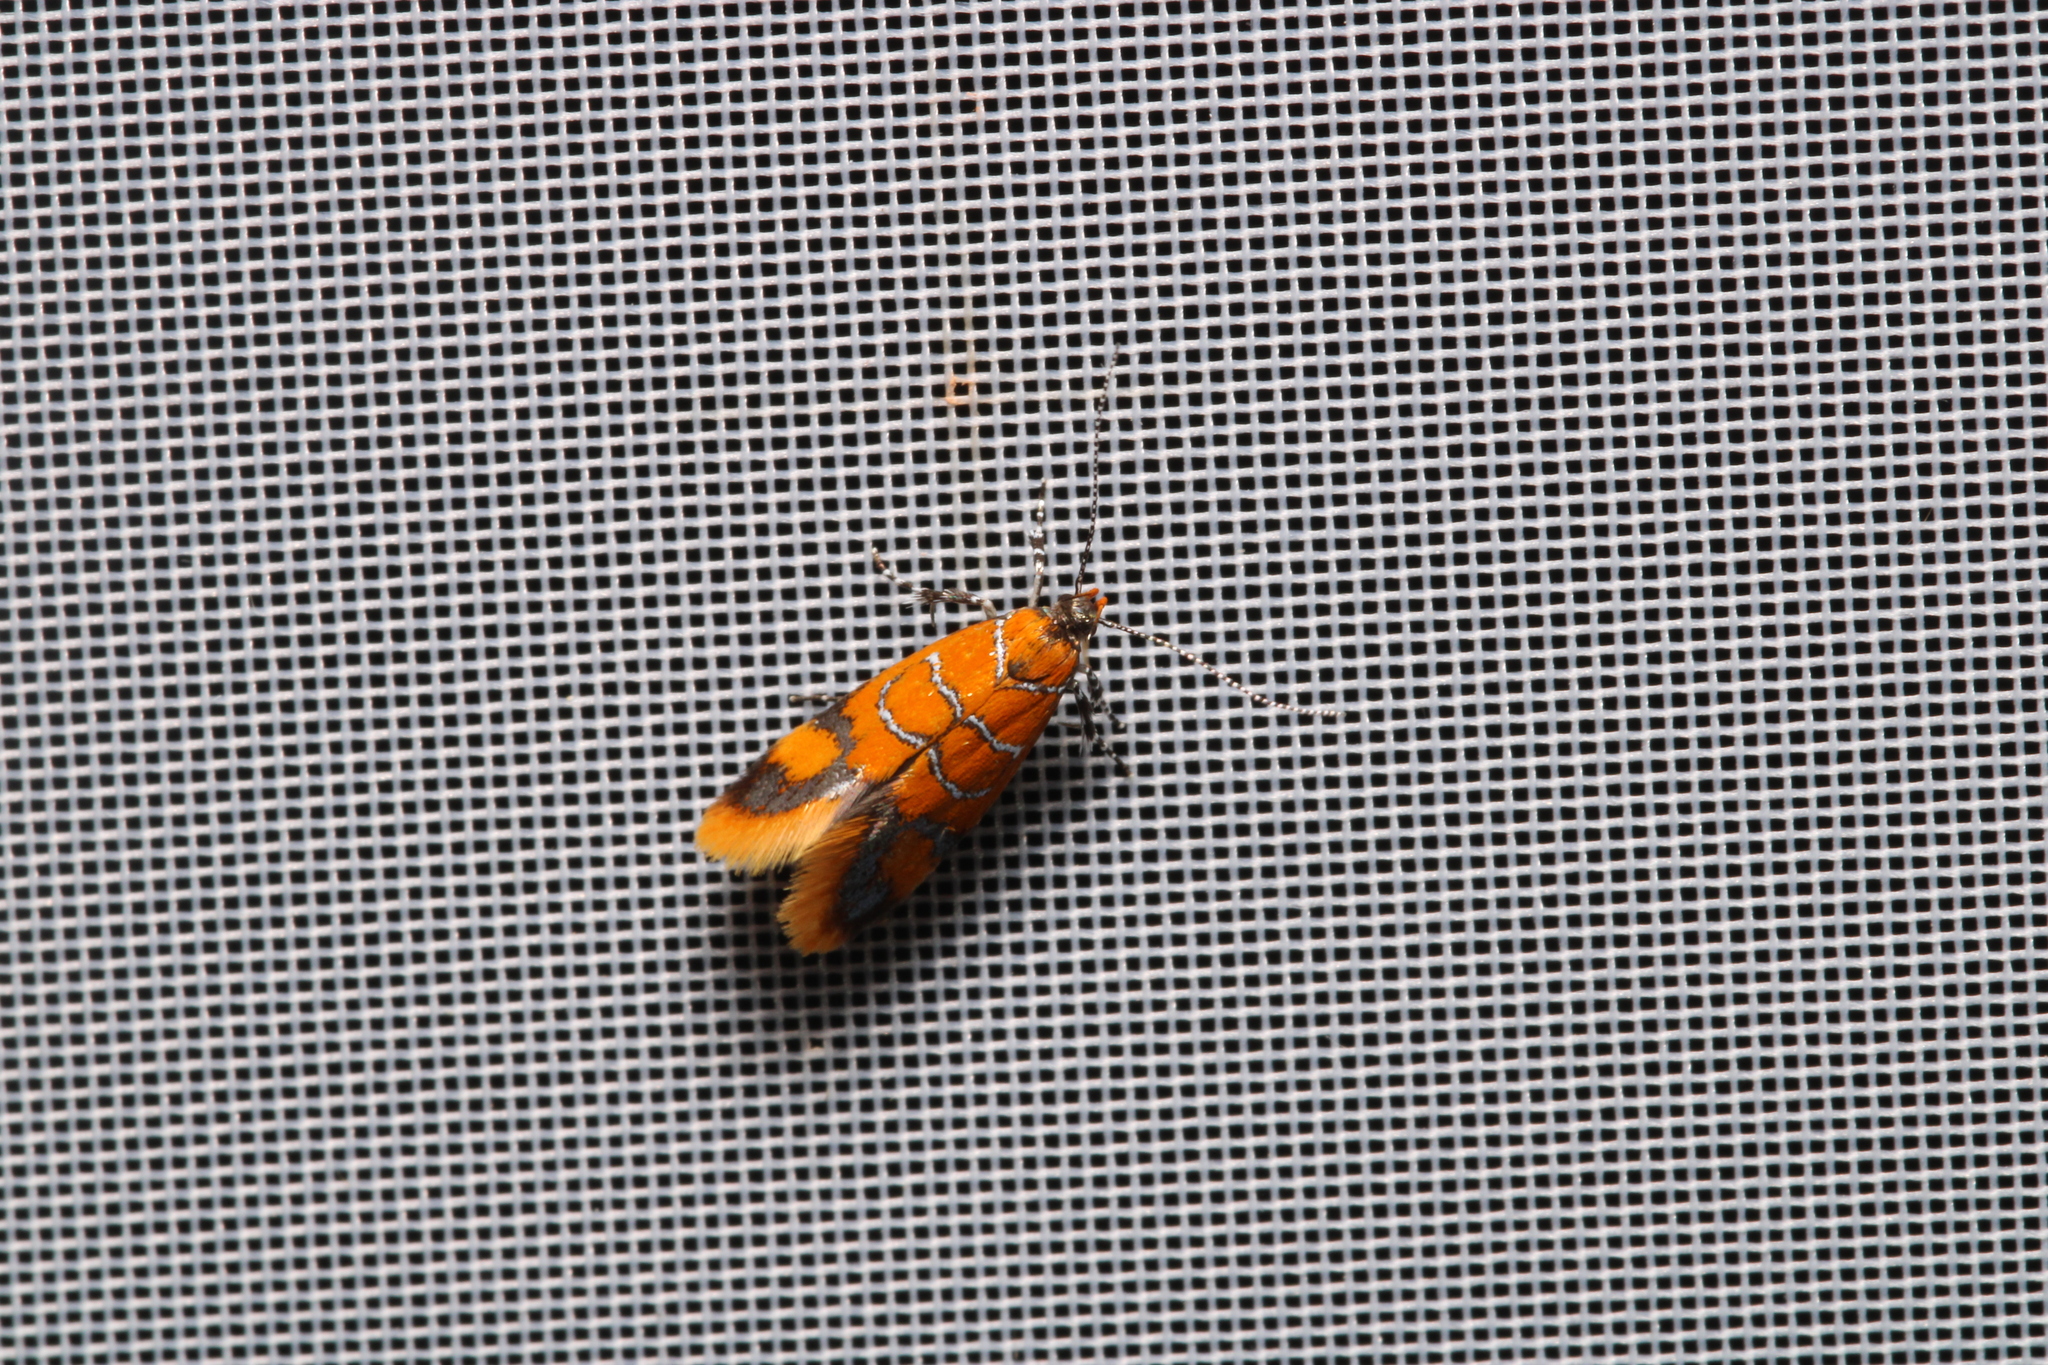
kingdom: Animalia
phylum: Arthropoda
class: Insecta
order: Lepidoptera
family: Oecophoridae
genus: Schiffermuelleria
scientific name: Schiffermuelleria procerella
